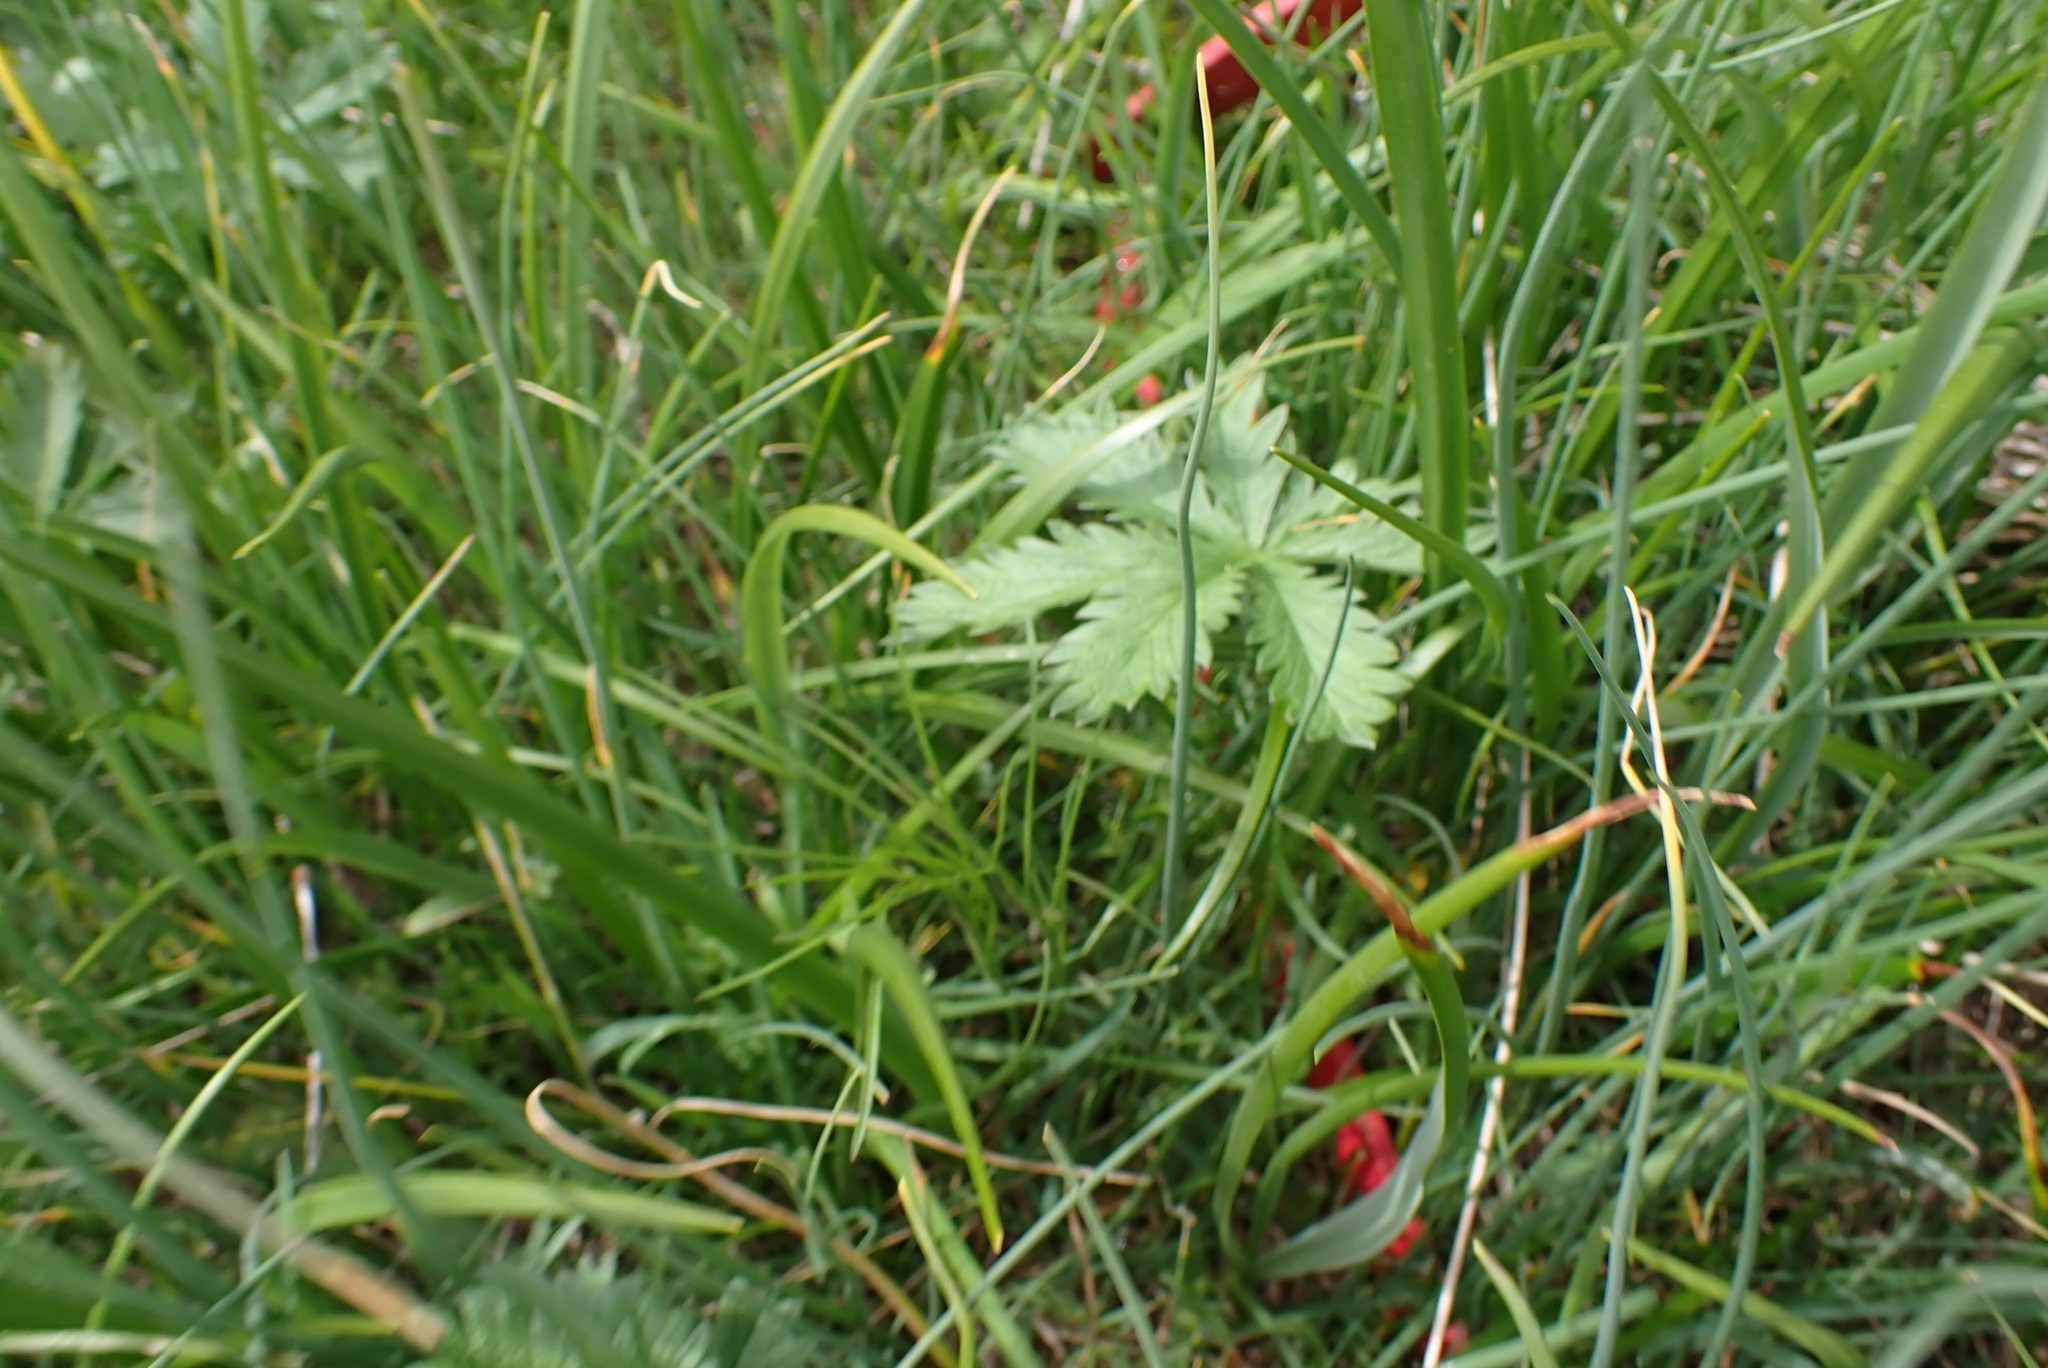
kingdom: Plantae
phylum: Tracheophyta
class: Magnoliopsida
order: Rosales
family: Rosaceae
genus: Potentilla
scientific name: Potentilla gracilis
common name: Graceful cinquefoil
